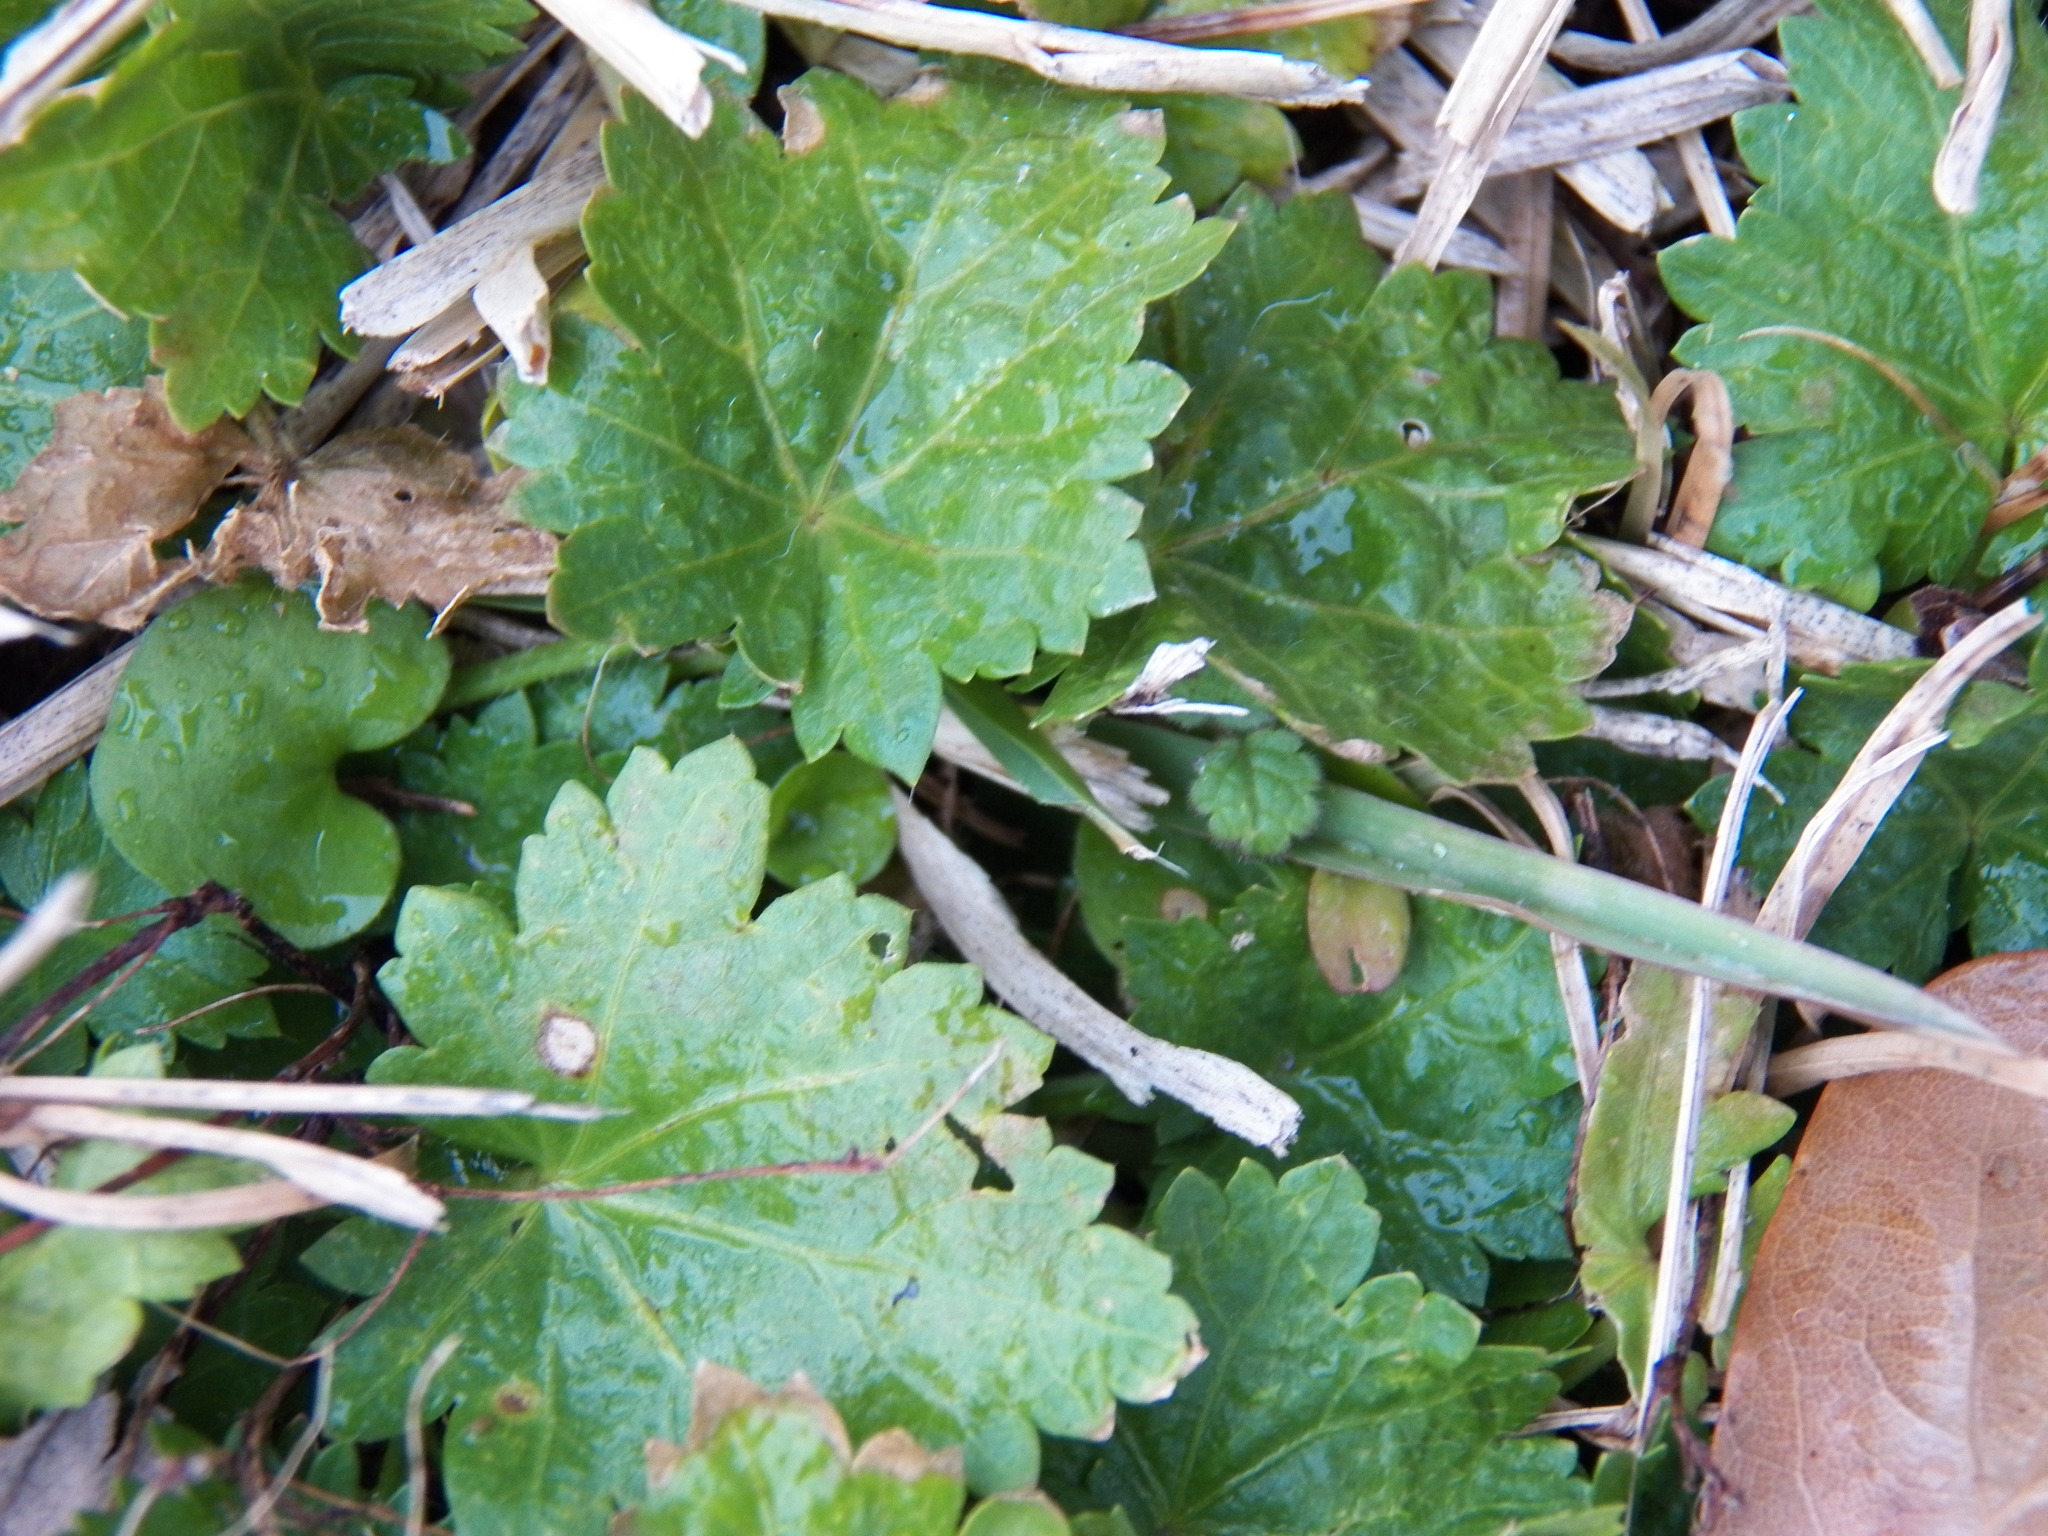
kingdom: Plantae
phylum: Tracheophyta
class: Magnoliopsida
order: Malvales
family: Malvaceae
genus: Modiola
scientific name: Modiola caroliniana
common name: Carolina bristlemallow
